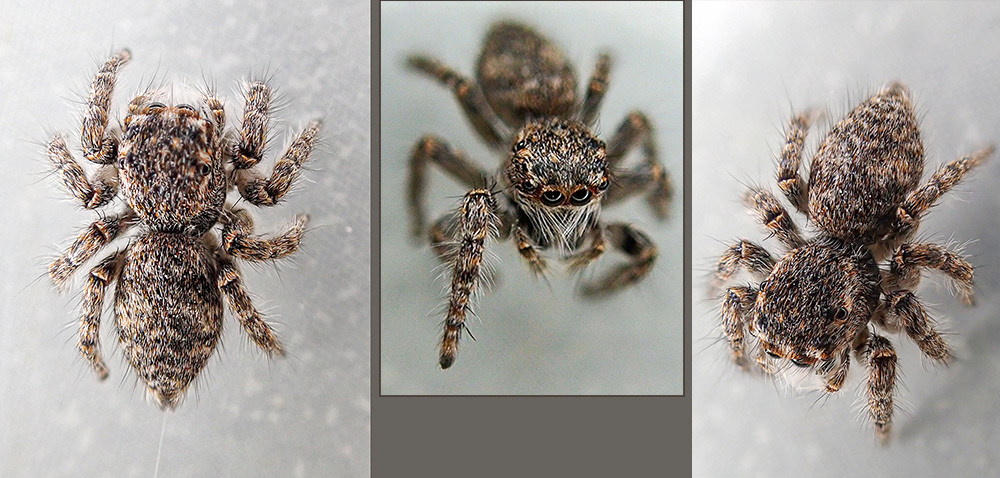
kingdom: Animalia
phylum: Arthropoda
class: Arachnida
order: Araneae
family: Salticidae
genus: Philaeus
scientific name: Philaeus chrysops
